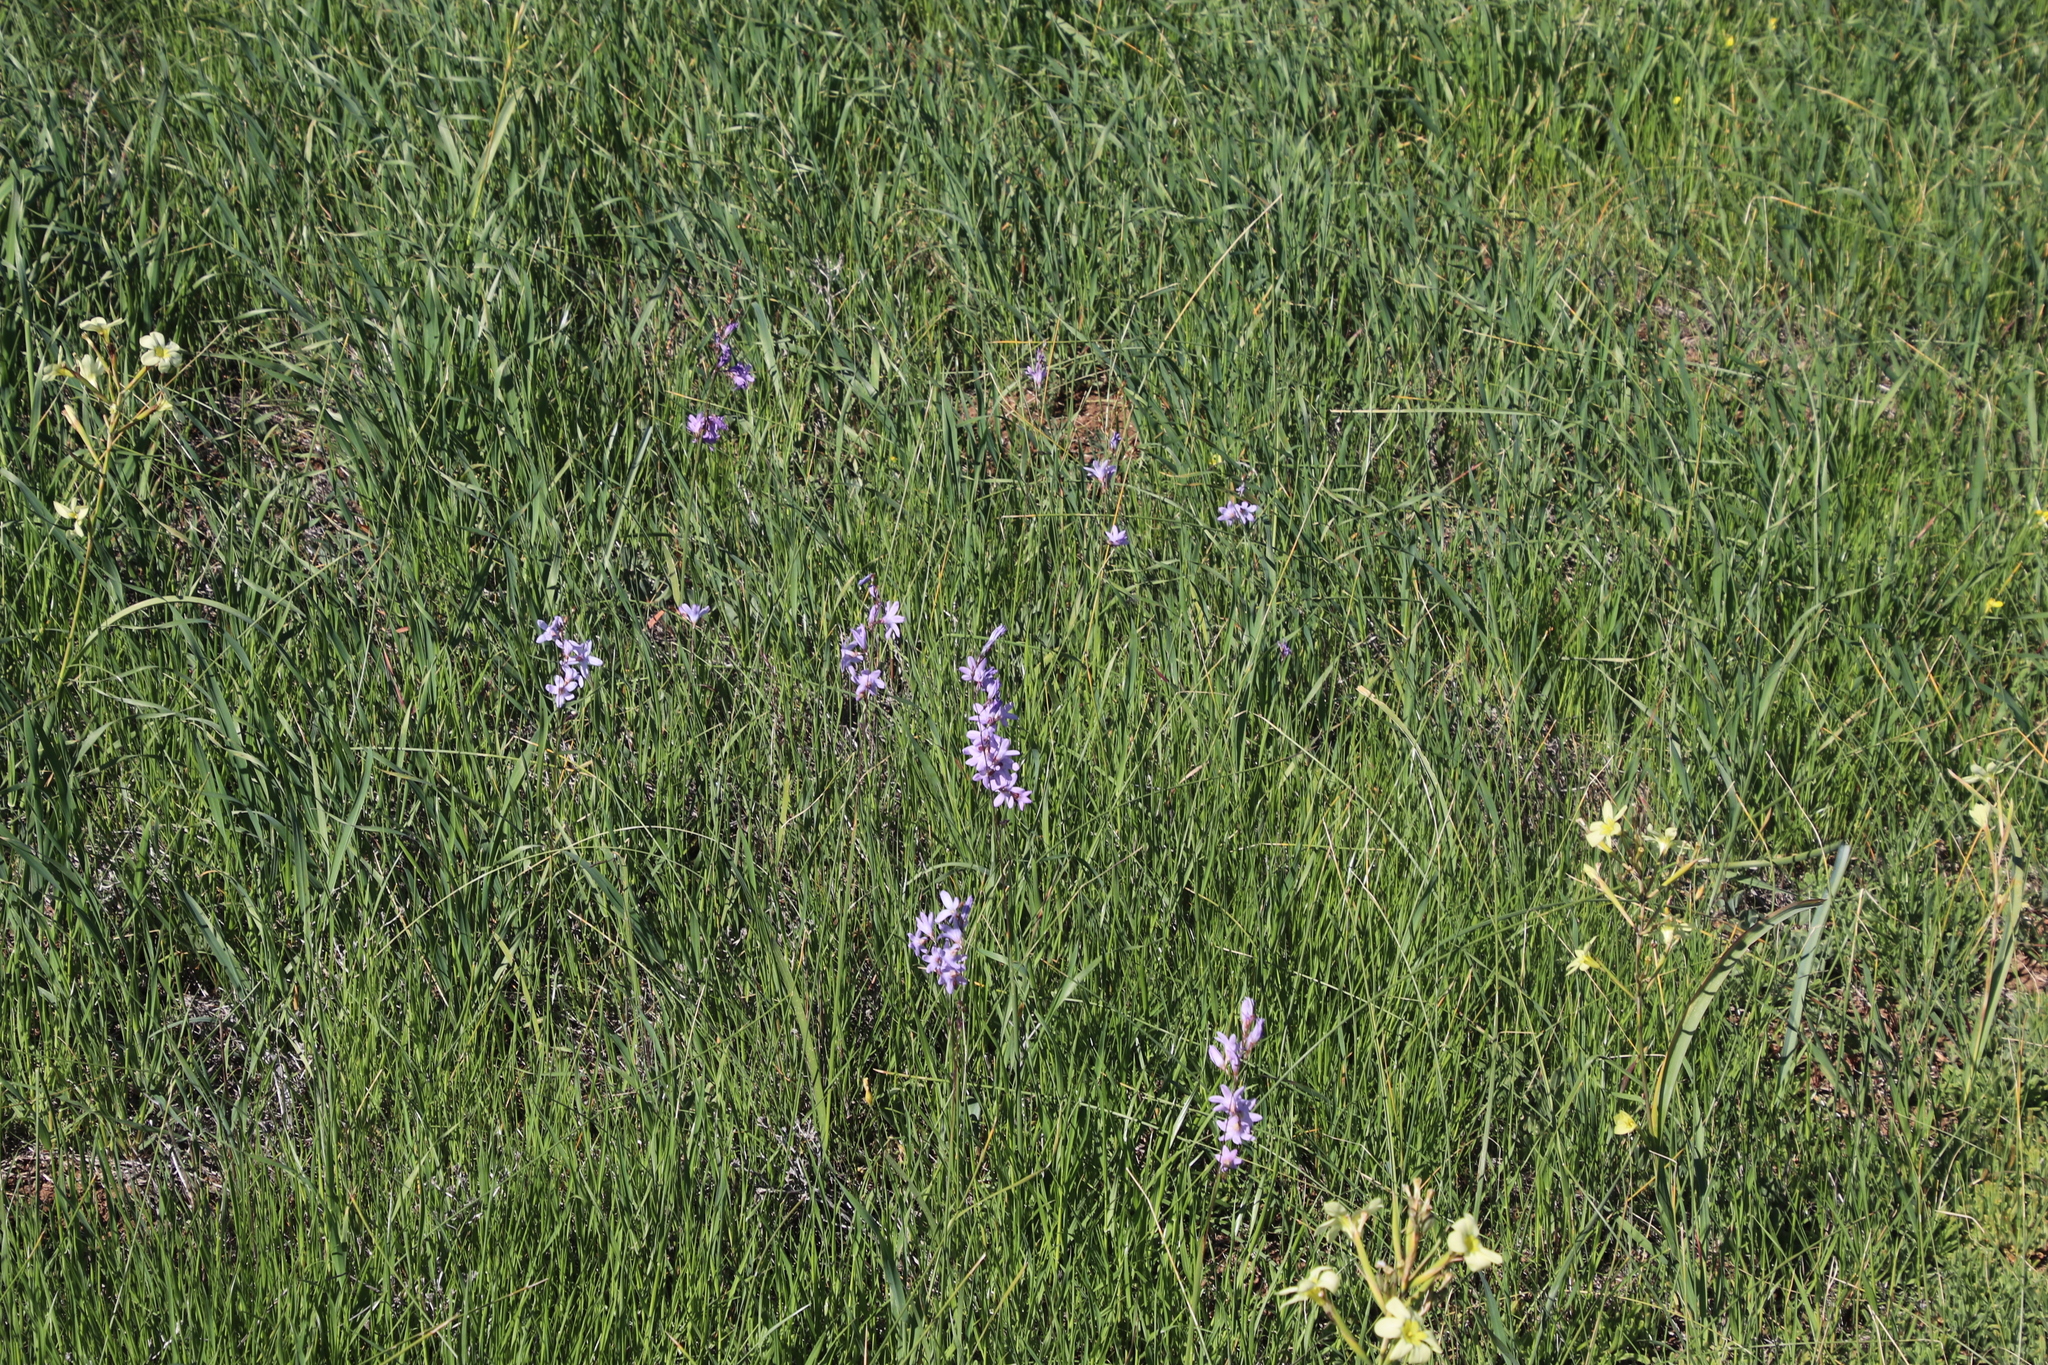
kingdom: Plantae
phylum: Tracheophyta
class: Liliopsida
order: Asparagales
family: Iridaceae
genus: Ixia
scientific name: Ixia rapunculoides
